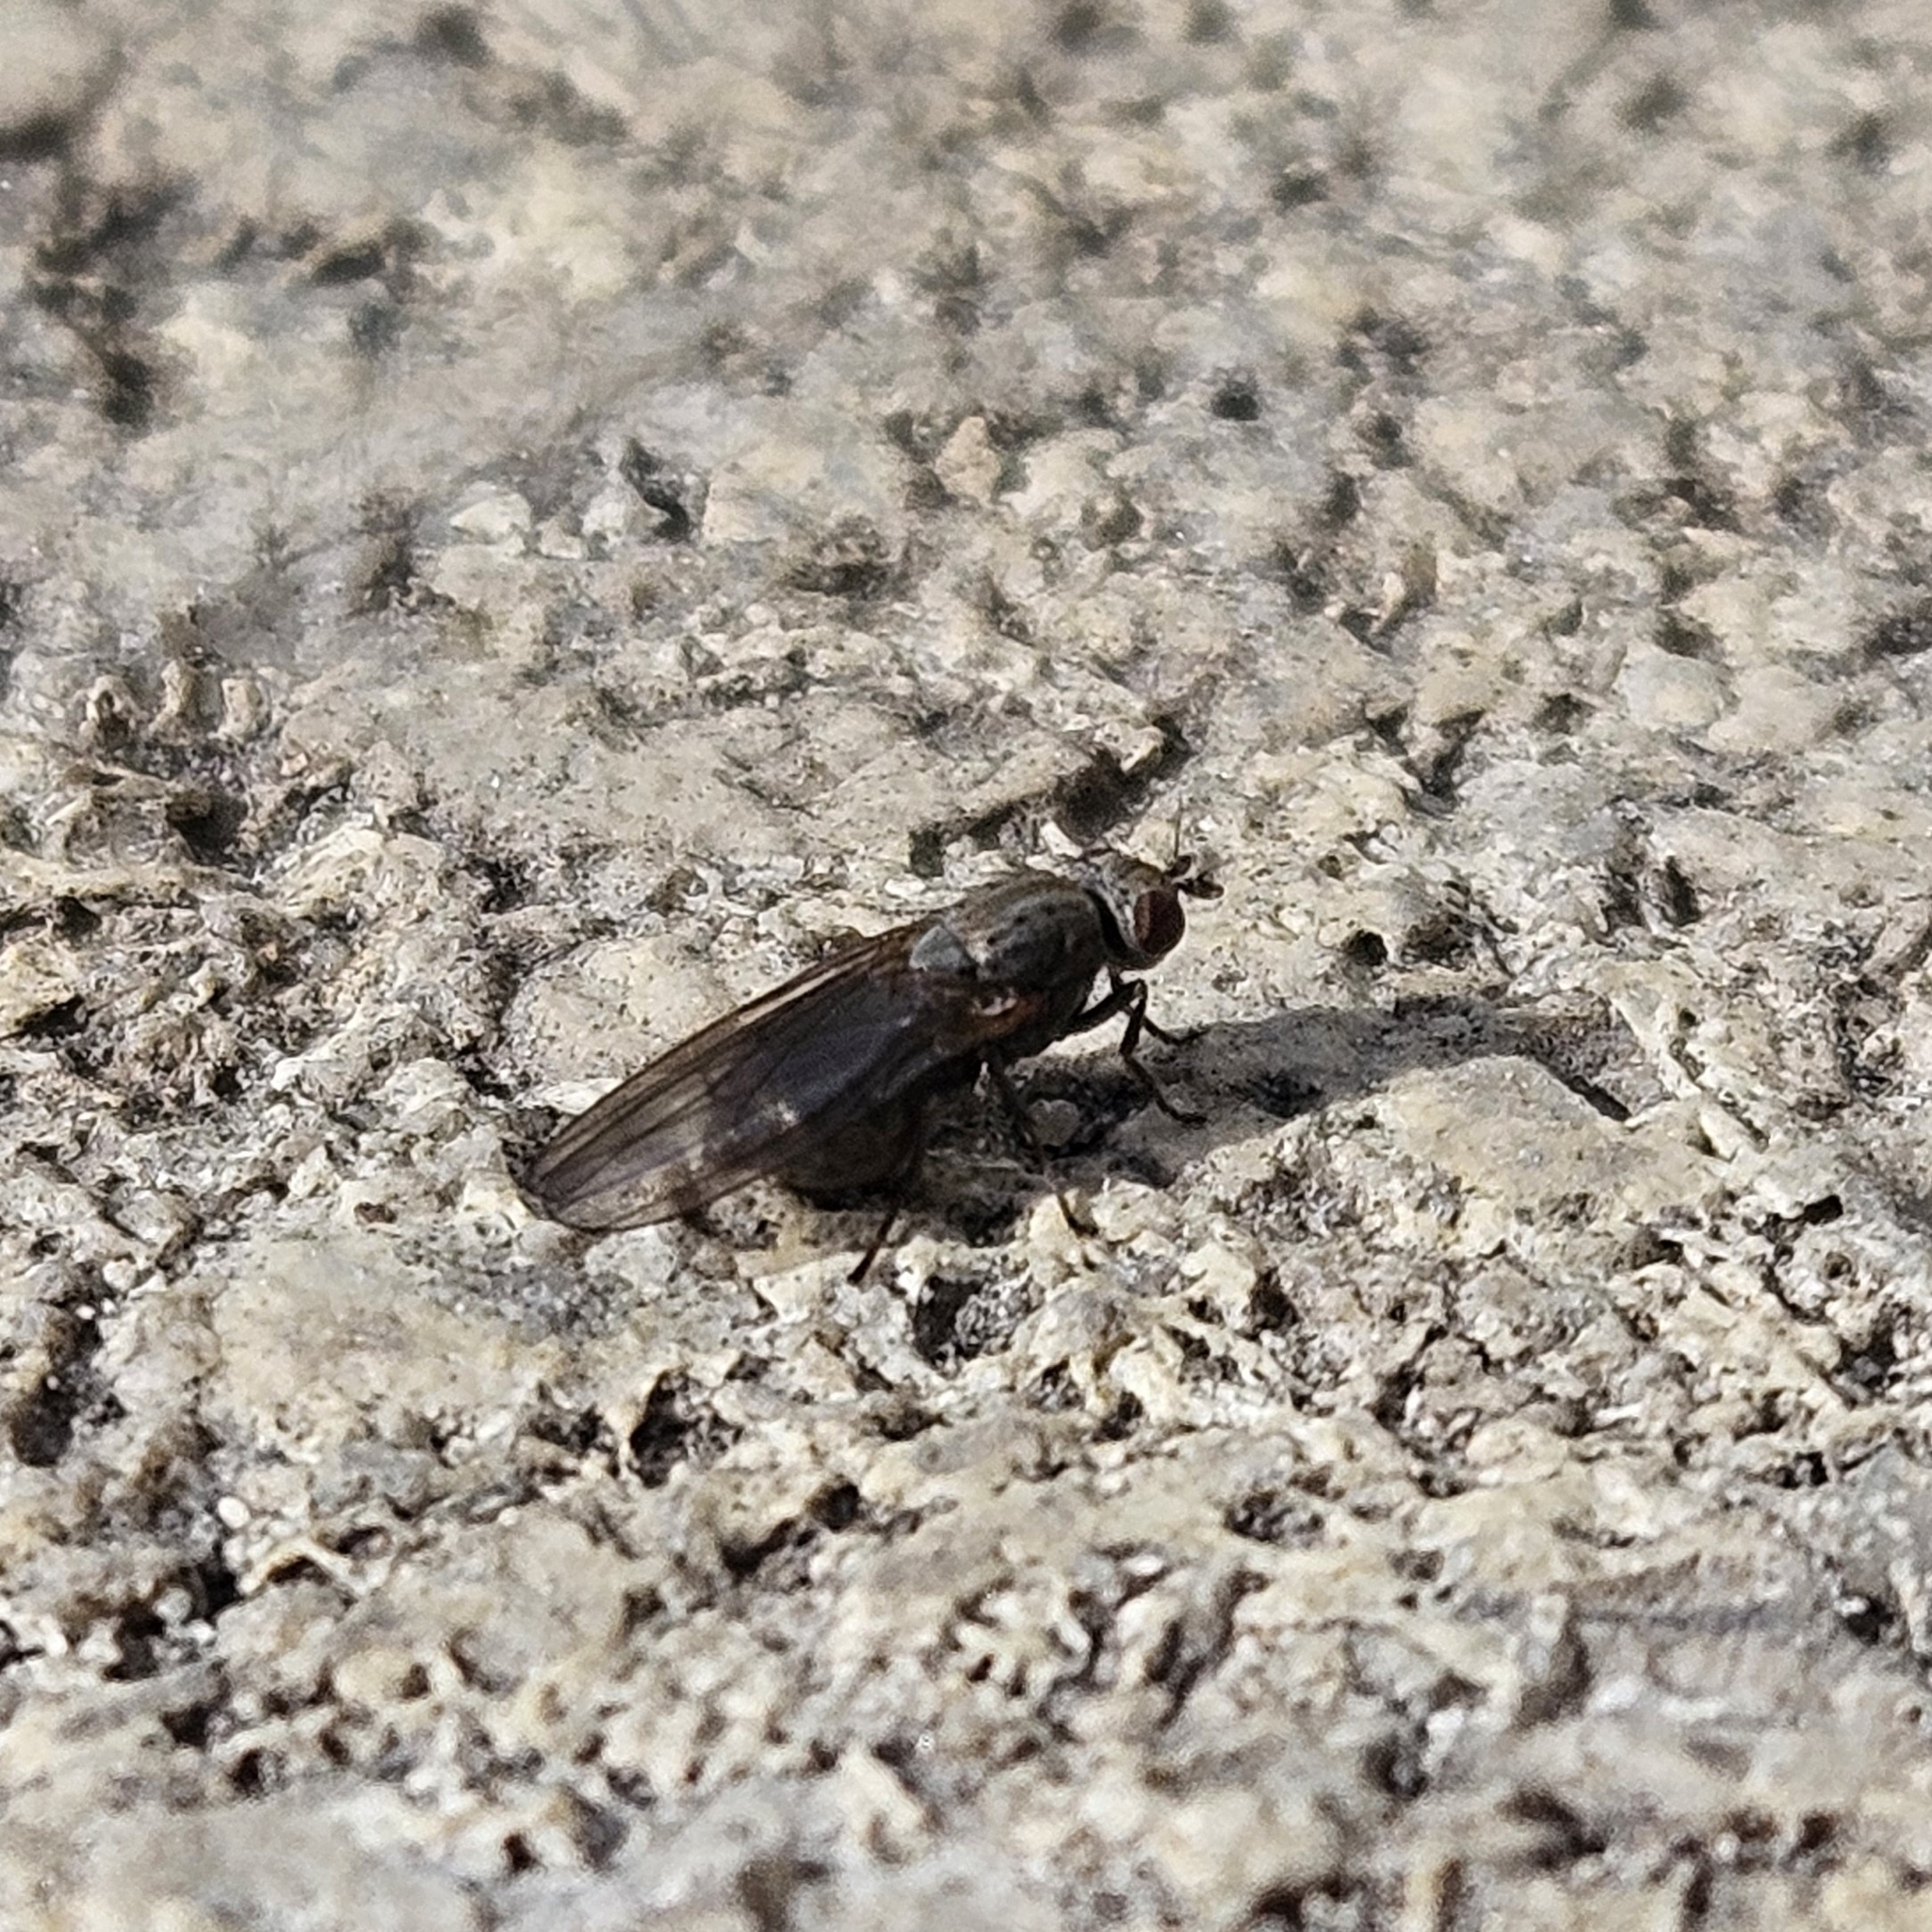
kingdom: Animalia
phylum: Arthropoda
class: Insecta
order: Diptera
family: Lauxaniidae
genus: Sapromyza
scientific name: Sapromyza brachysoma
